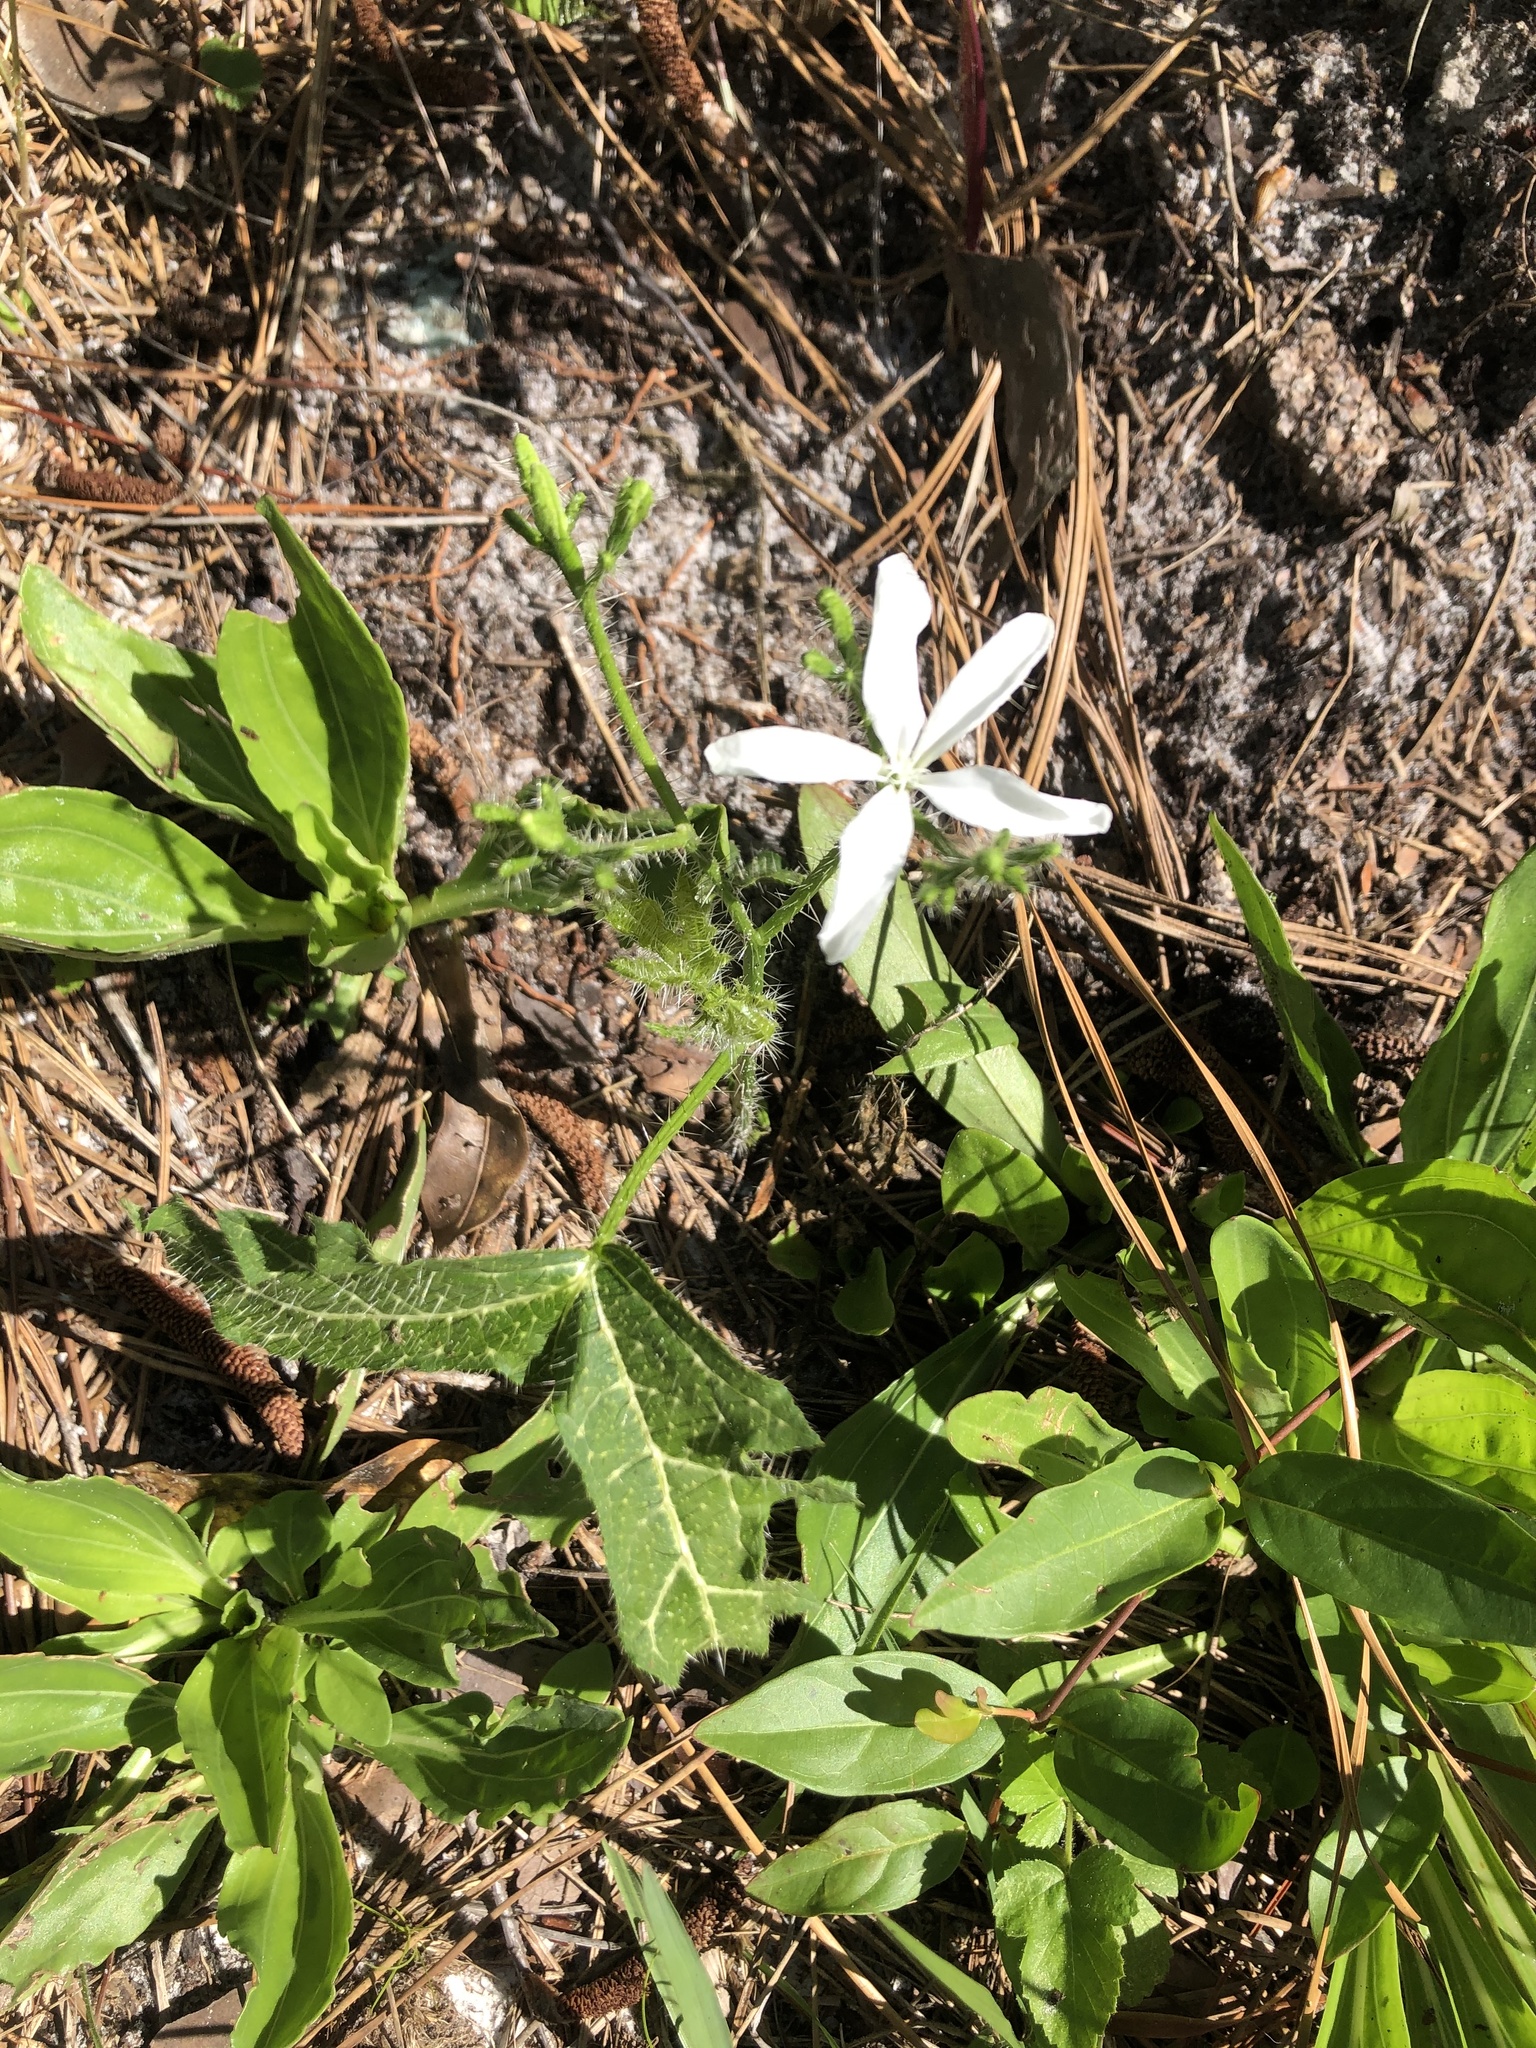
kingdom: Plantae
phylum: Tracheophyta
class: Magnoliopsida
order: Malpighiales
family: Euphorbiaceae
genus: Cnidoscolus
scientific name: Cnidoscolus stimulosus
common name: Bull-nettle
